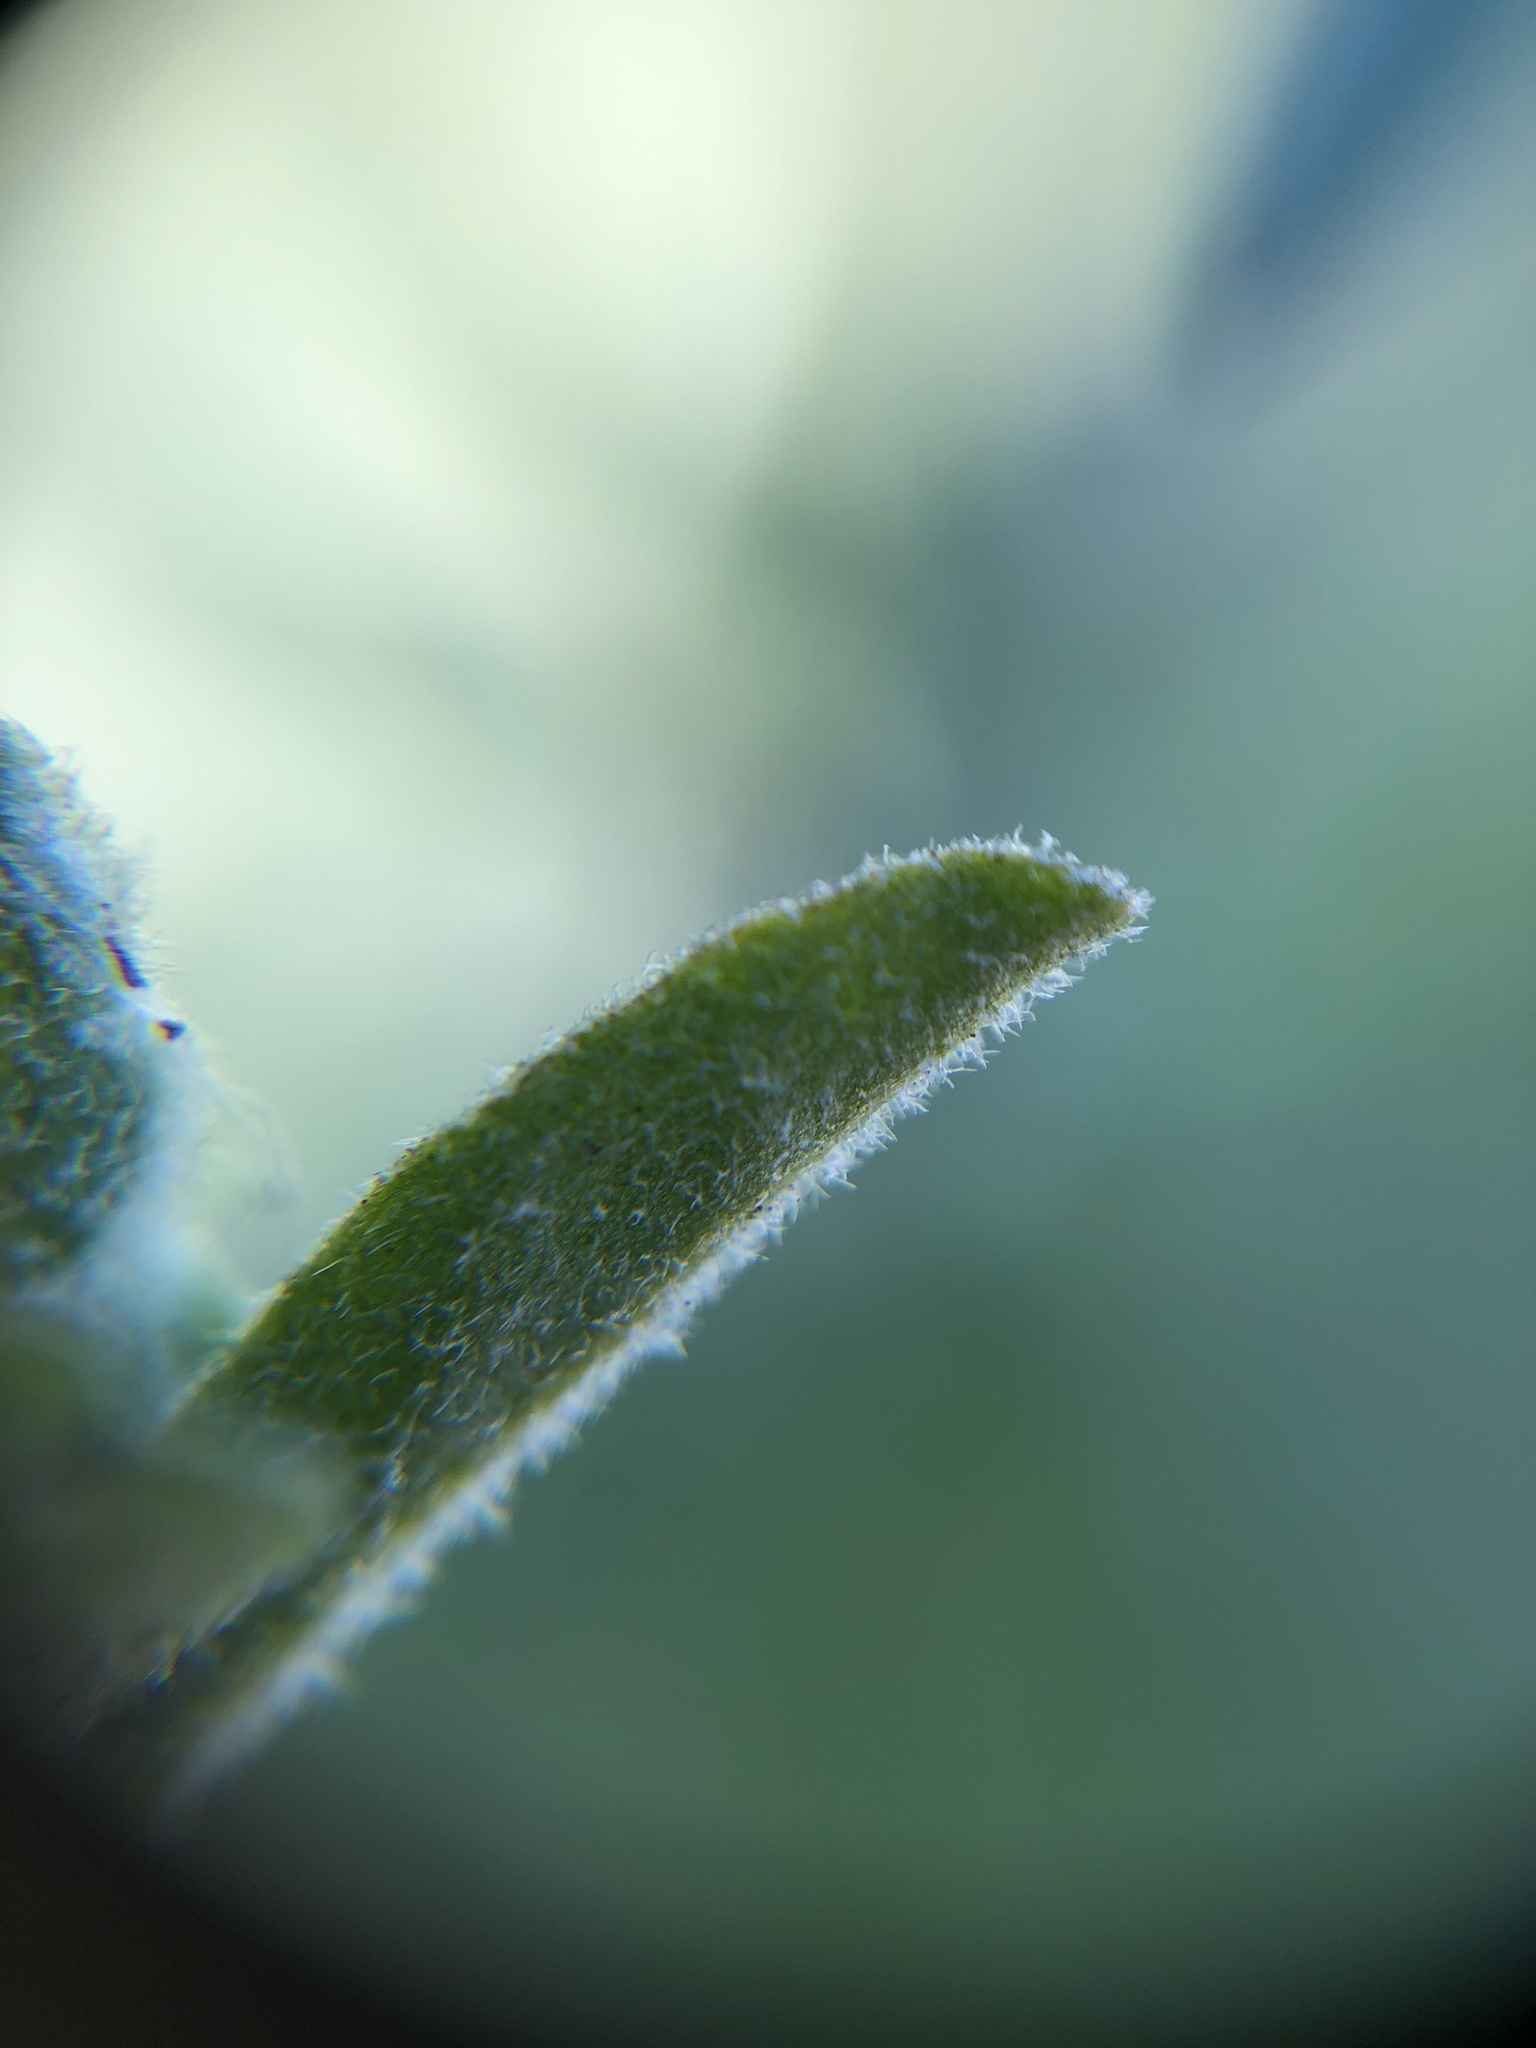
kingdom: Plantae
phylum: Tracheophyta
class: Magnoliopsida
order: Solanales
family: Solanaceae
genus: Solanum
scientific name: Solanum umbelliferum
